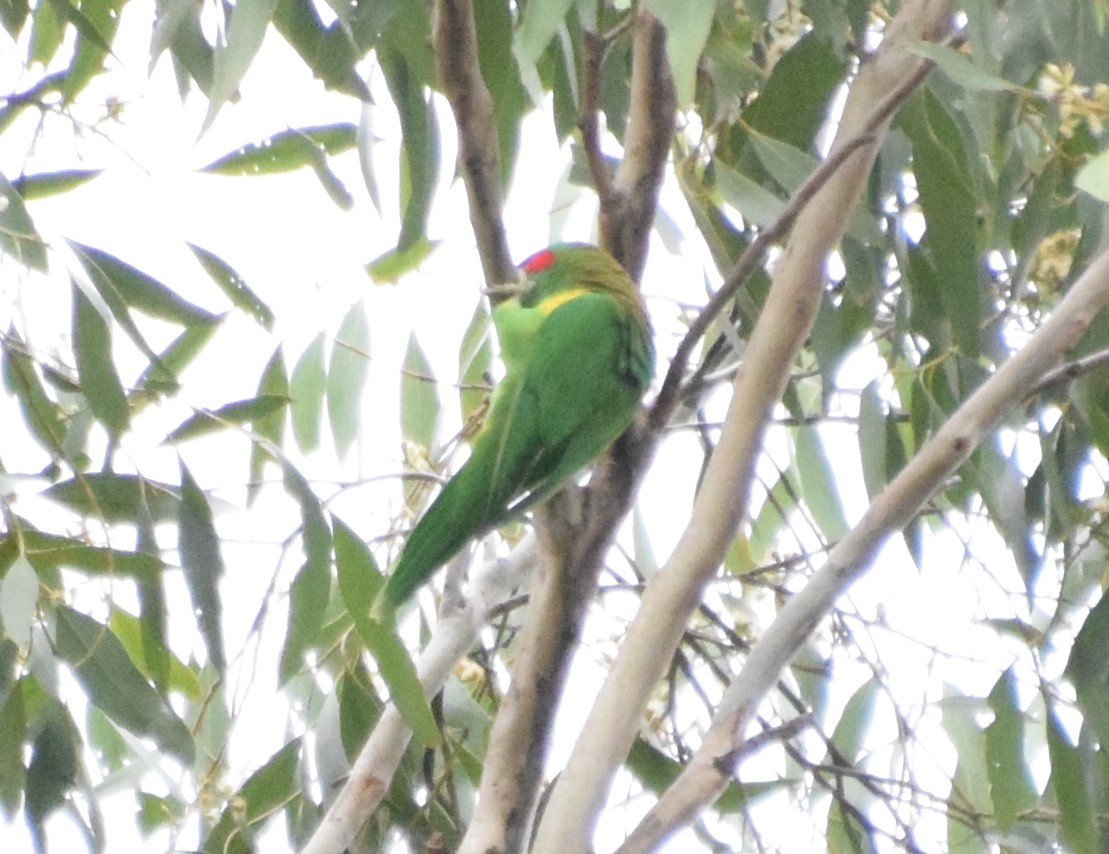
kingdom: Animalia
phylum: Chordata
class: Aves
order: Psittaciformes
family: Psittacidae
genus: Glossopsitta
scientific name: Glossopsitta concinna
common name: Musk lorikeet
